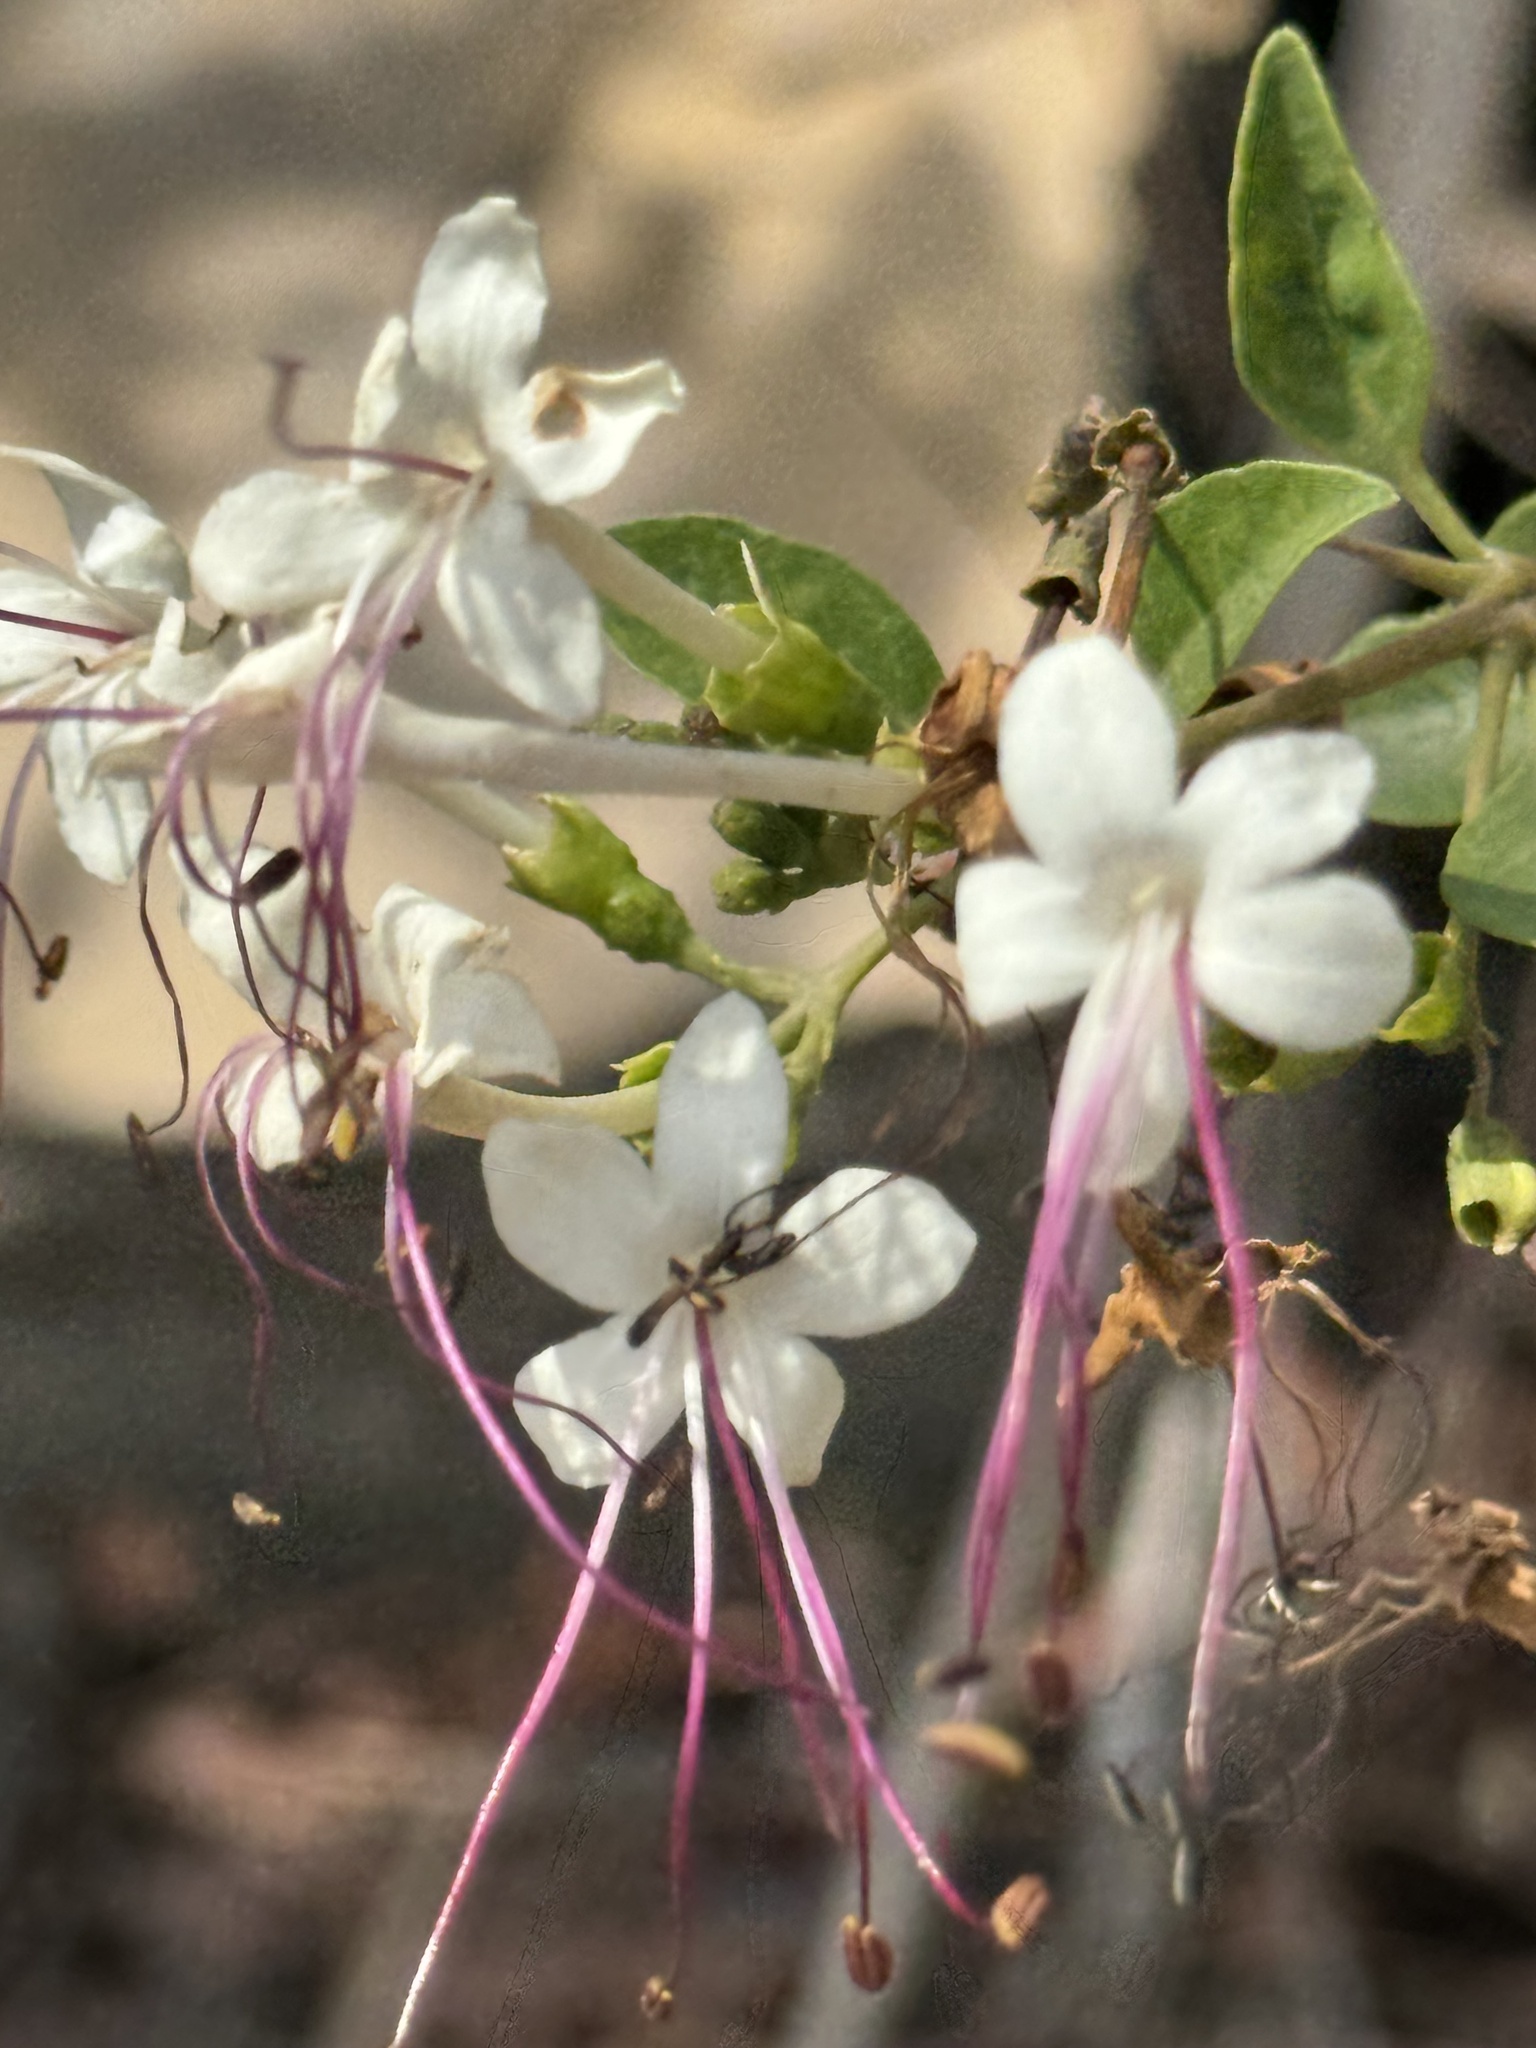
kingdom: Plantae
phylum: Tracheophyta
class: Magnoliopsida
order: Lamiales
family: Lamiaceae
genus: Volkameria
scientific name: Volkameria inermis
